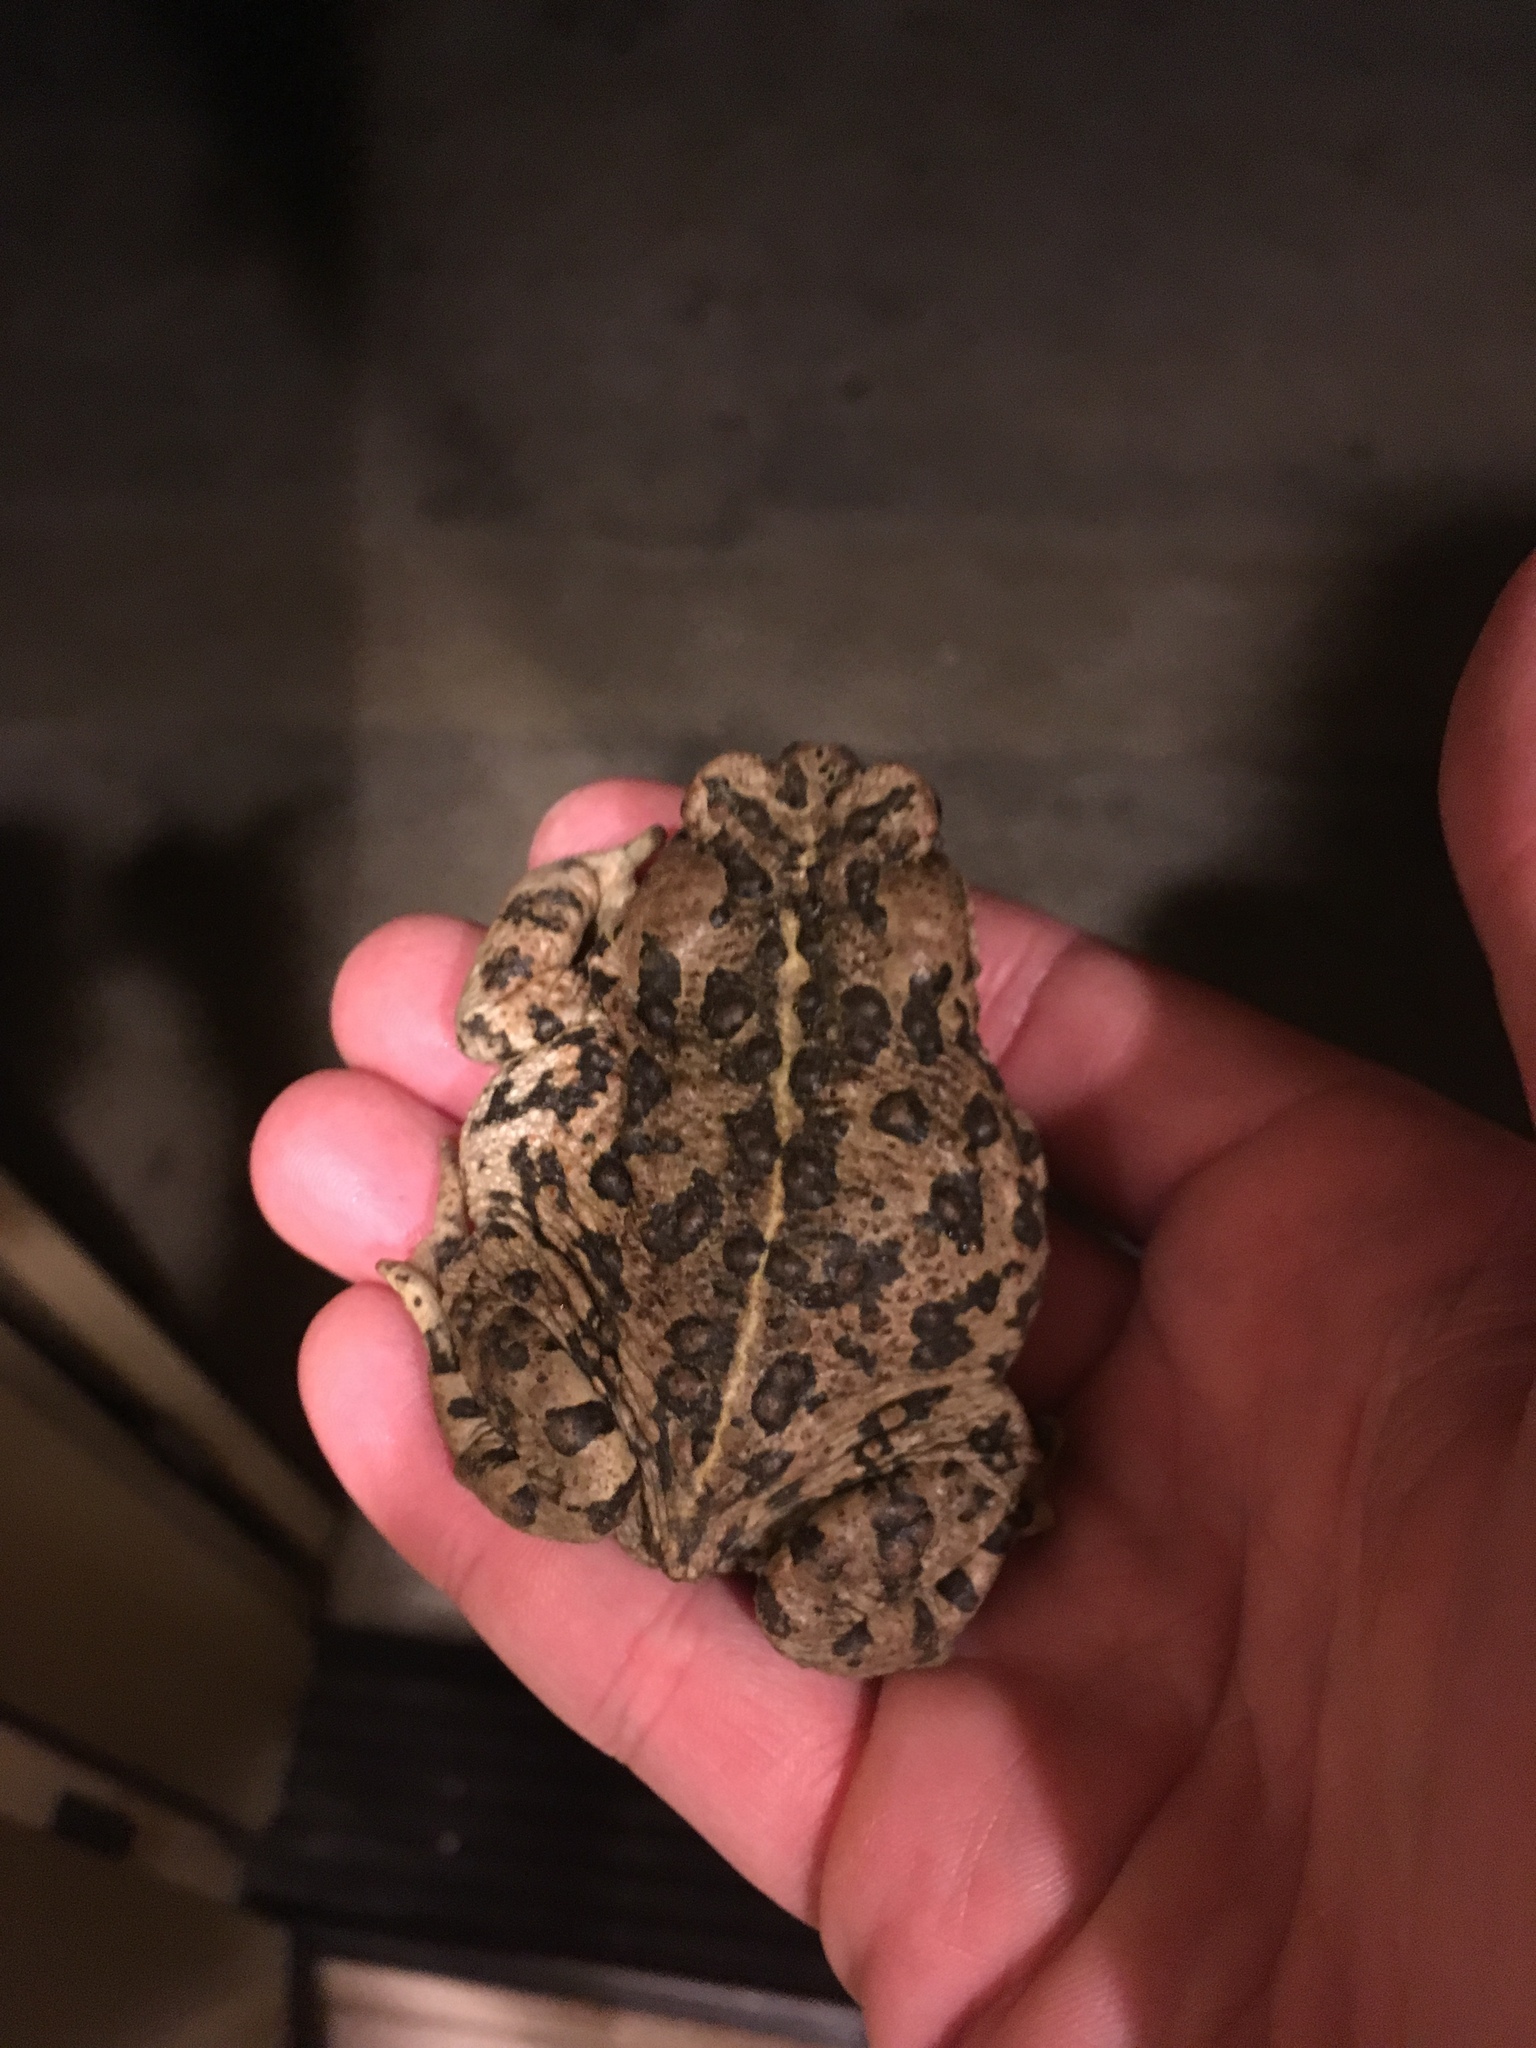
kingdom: Animalia
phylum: Chordata
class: Amphibia
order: Anura
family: Bufonidae
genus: Anaxyrus
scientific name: Anaxyrus boreas
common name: Western toad
